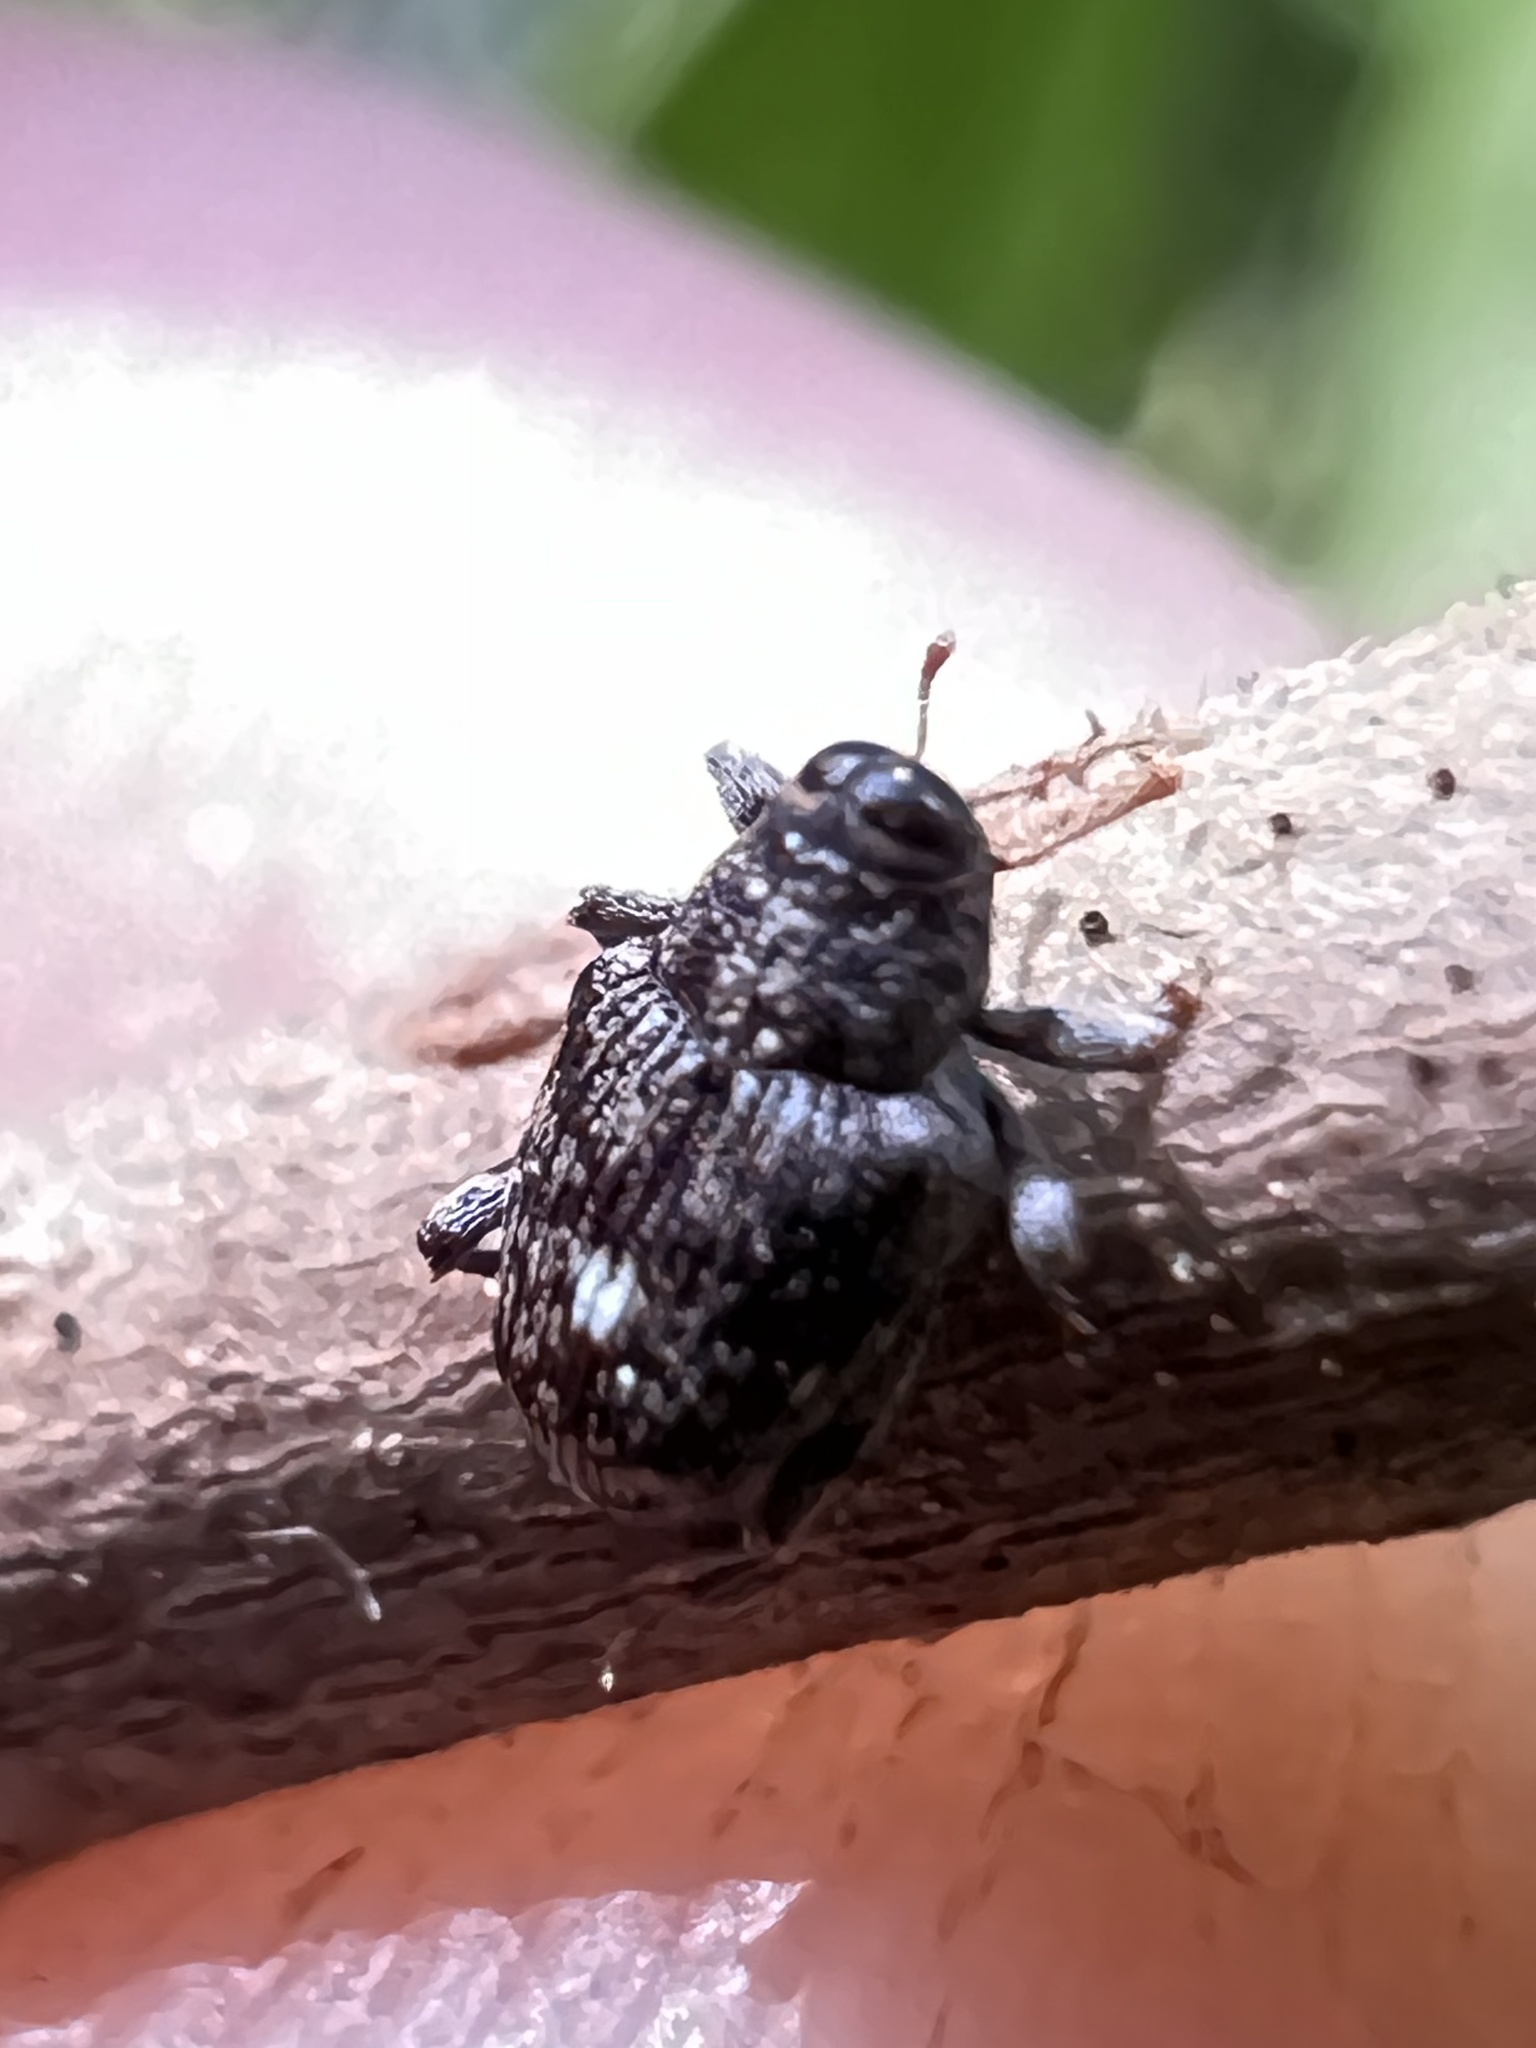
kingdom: Animalia
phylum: Arthropoda
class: Insecta
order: Coleoptera
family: Curculionidae
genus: Lechriops
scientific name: Lechriops oculatus
